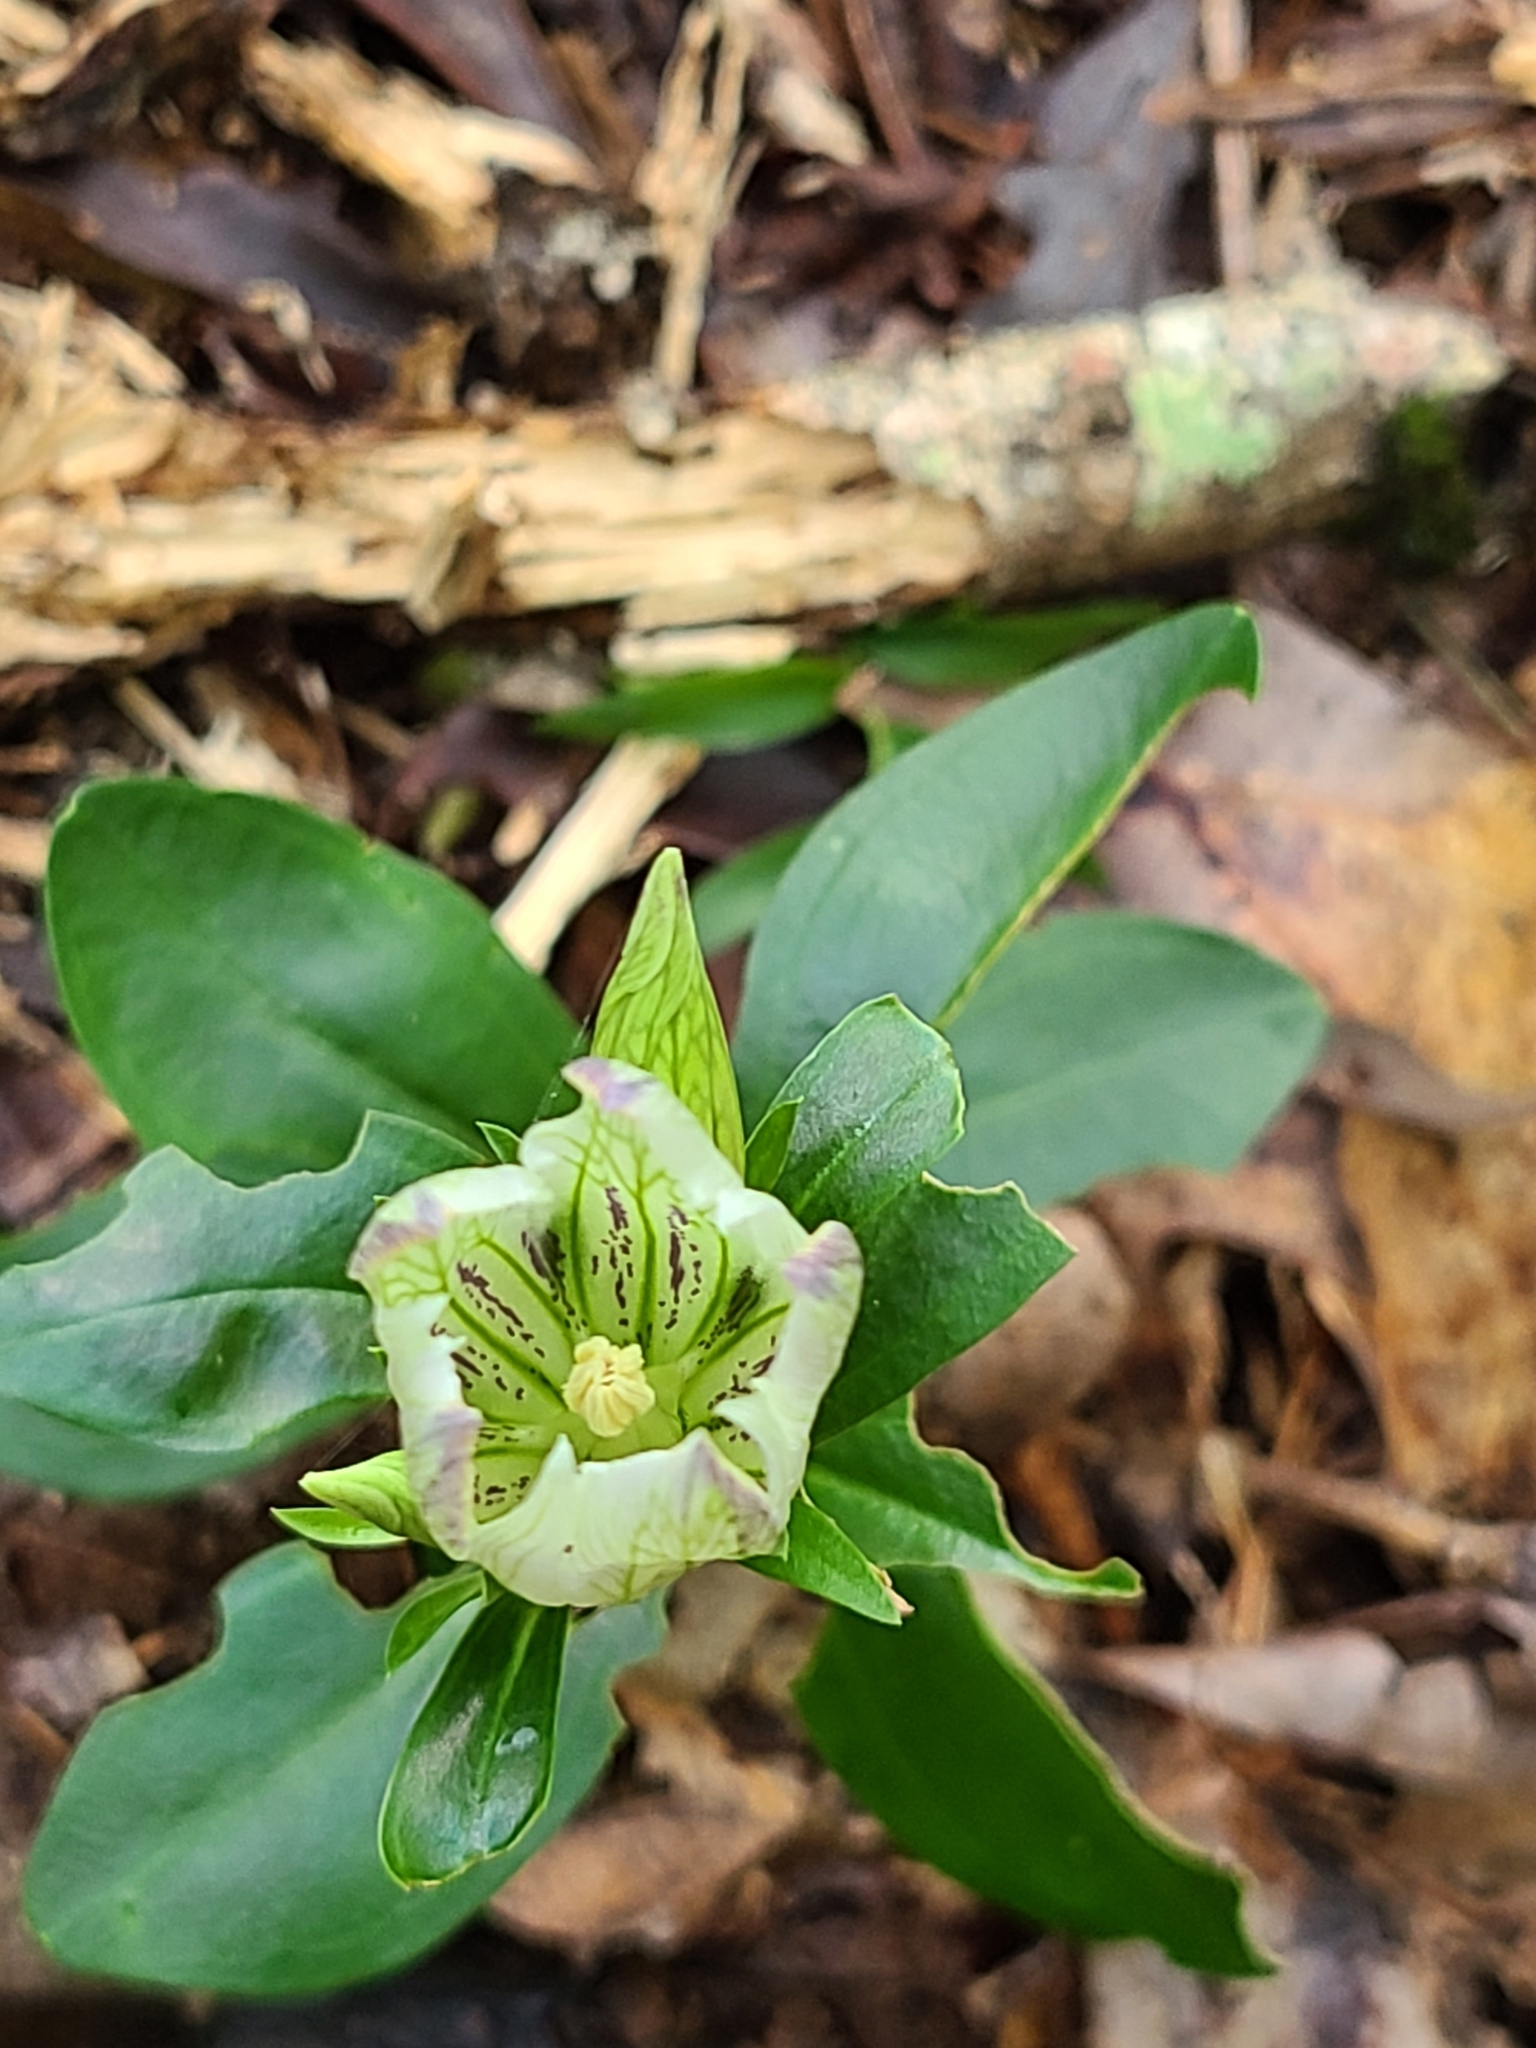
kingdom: Plantae
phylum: Tracheophyta
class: Magnoliopsida
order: Gentianales
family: Gentianaceae
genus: Gentiana
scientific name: Gentiana villosa
